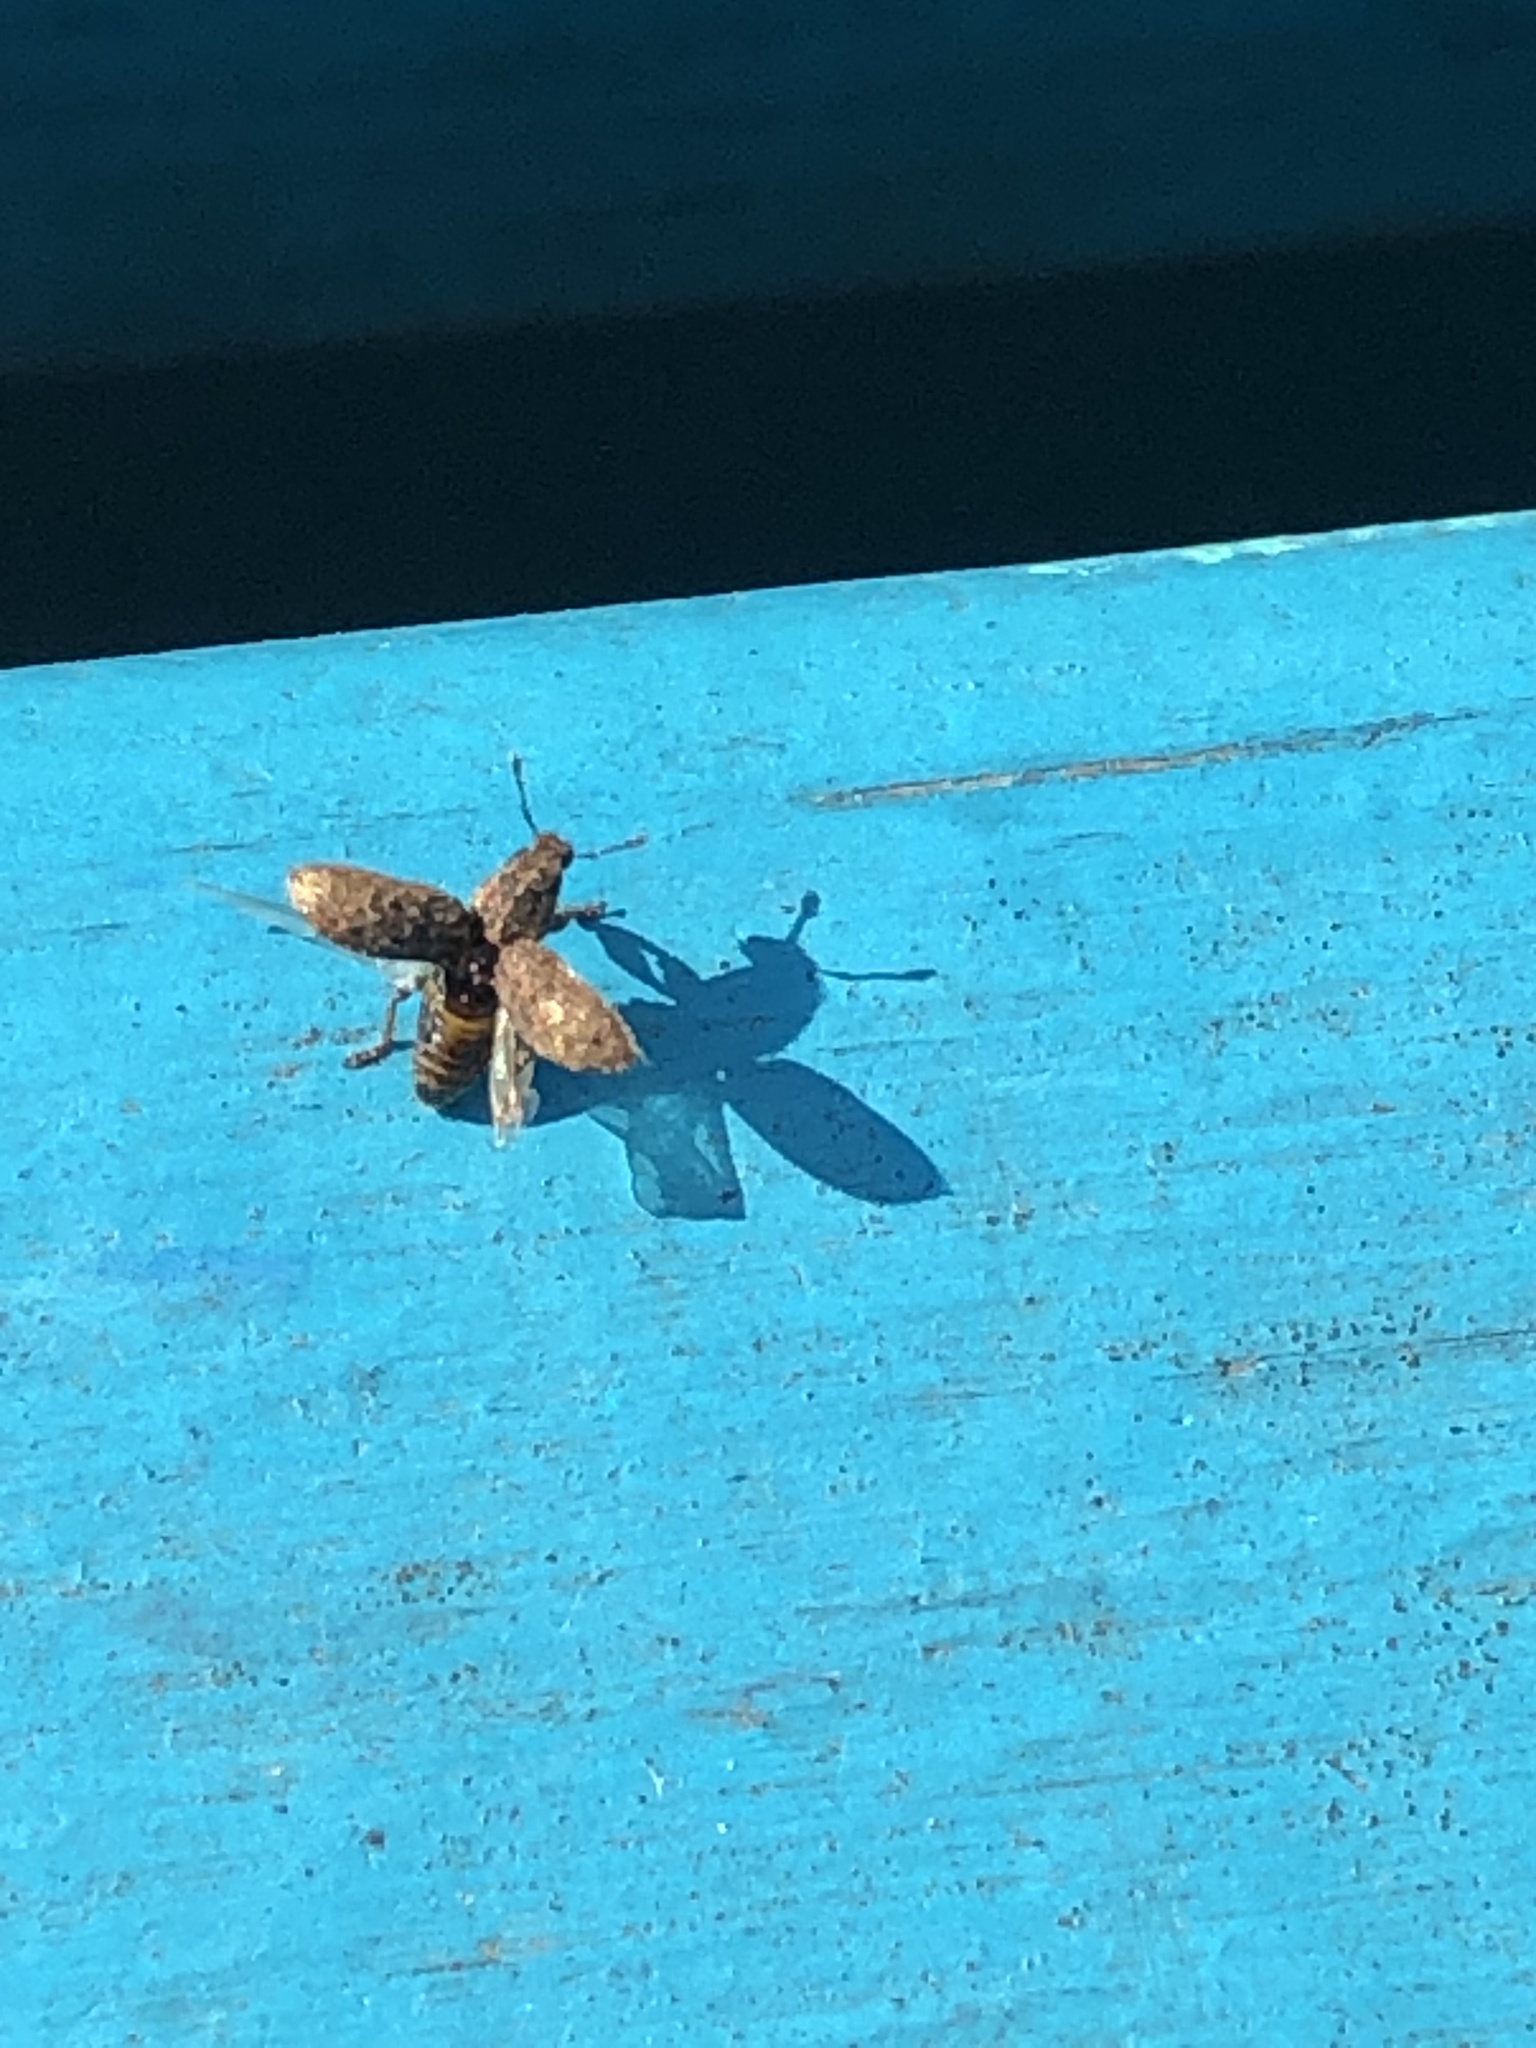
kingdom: Animalia
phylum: Arthropoda
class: Insecta
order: Coleoptera
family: Curculionidae
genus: Sitona
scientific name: Sitona hispidulus
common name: Clover weevil
